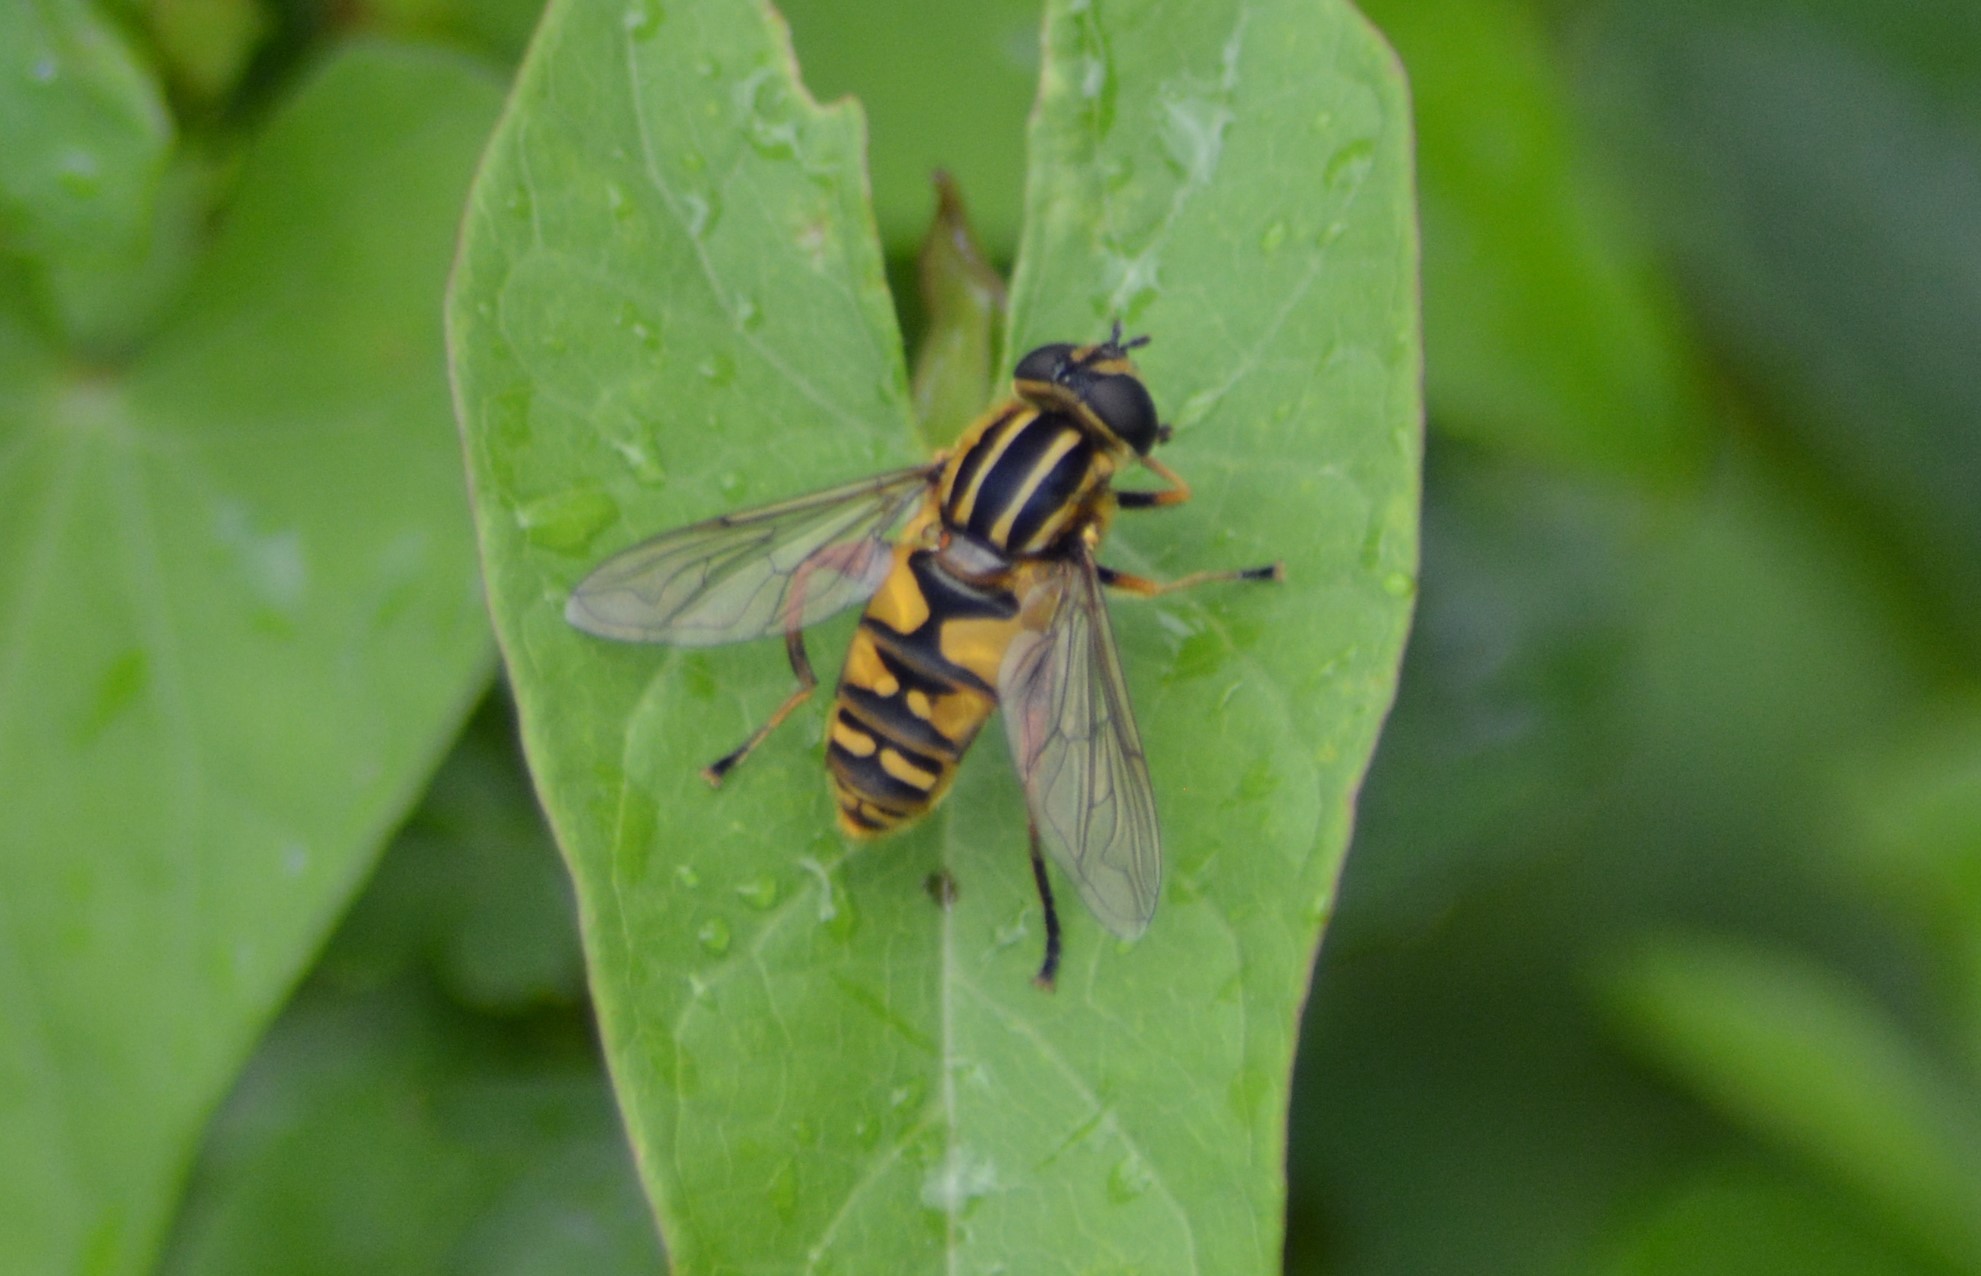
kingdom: Animalia
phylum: Arthropoda
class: Insecta
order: Diptera
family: Syrphidae
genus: Helophilus
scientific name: Helophilus pendulus
